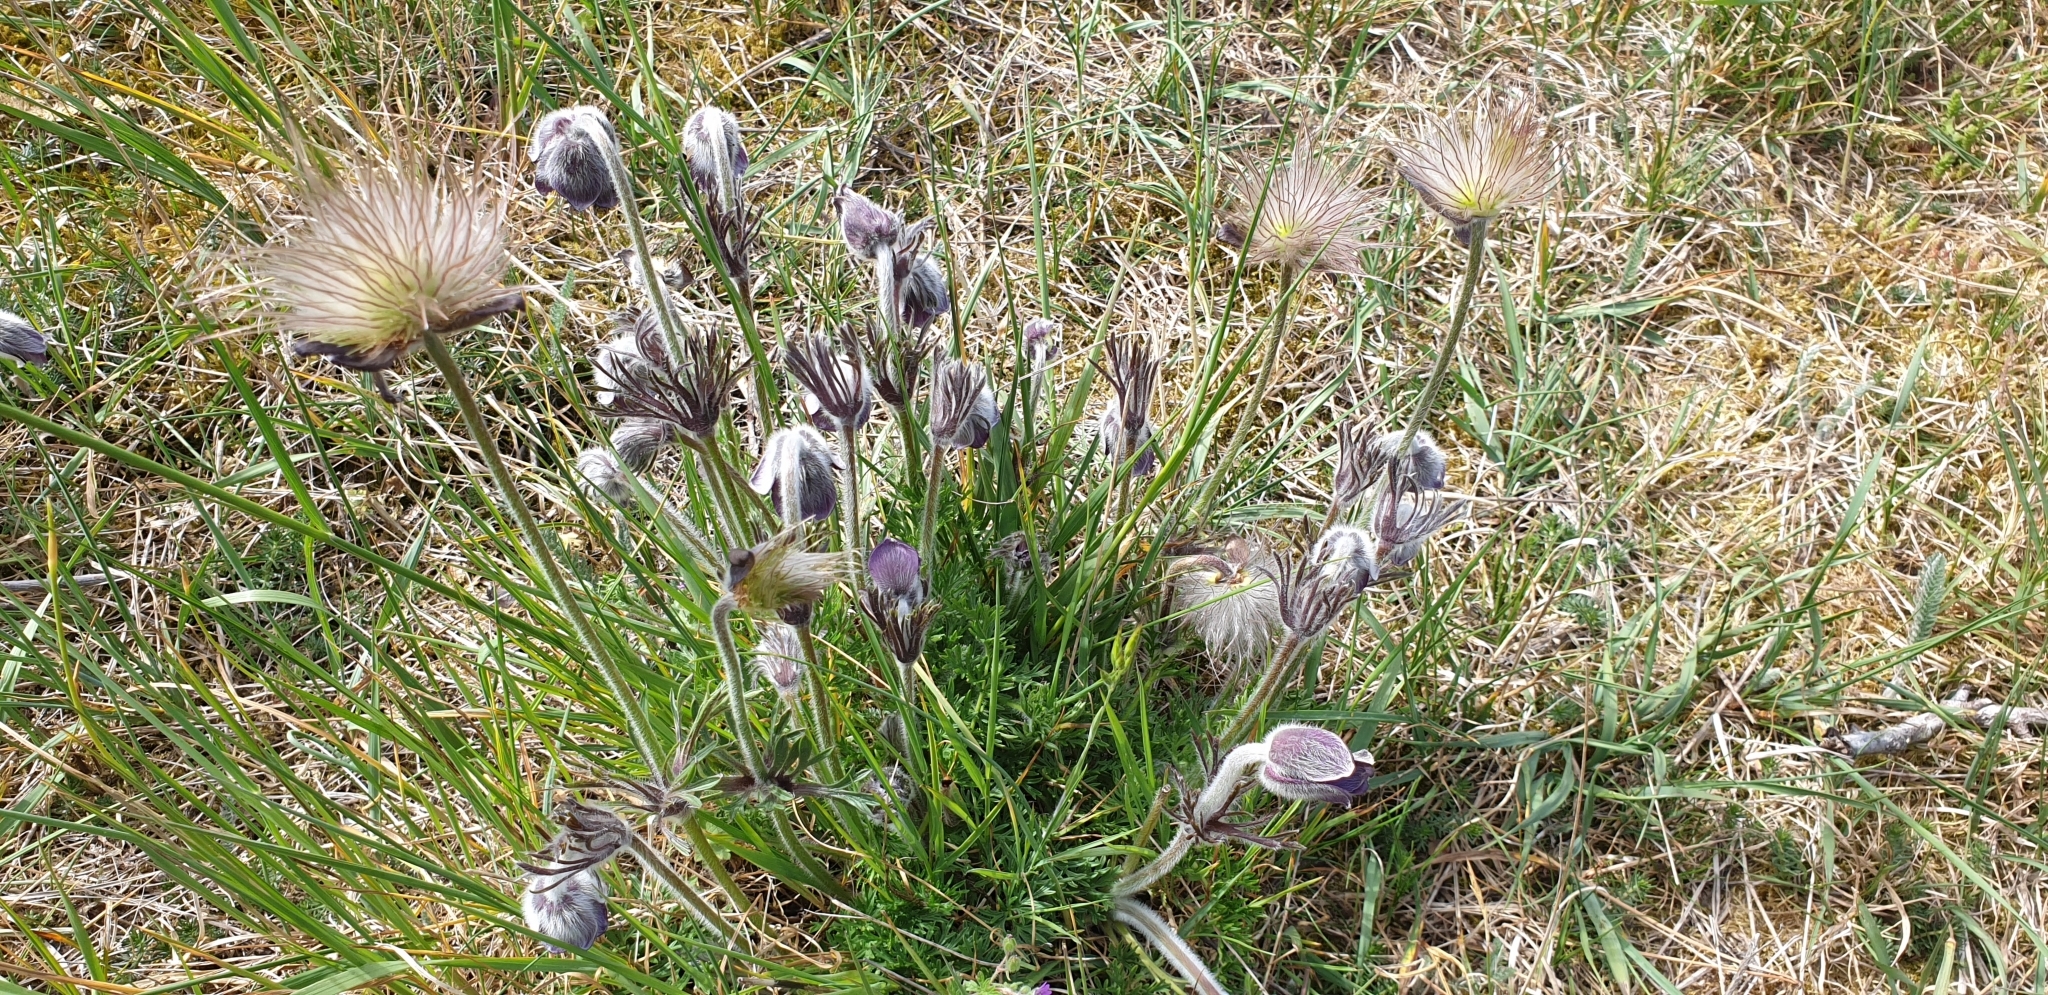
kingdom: Plantae
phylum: Tracheophyta
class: Magnoliopsida
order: Ranunculales
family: Ranunculaceae
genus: Pulsatilla
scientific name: Pulsatilla pratensis
